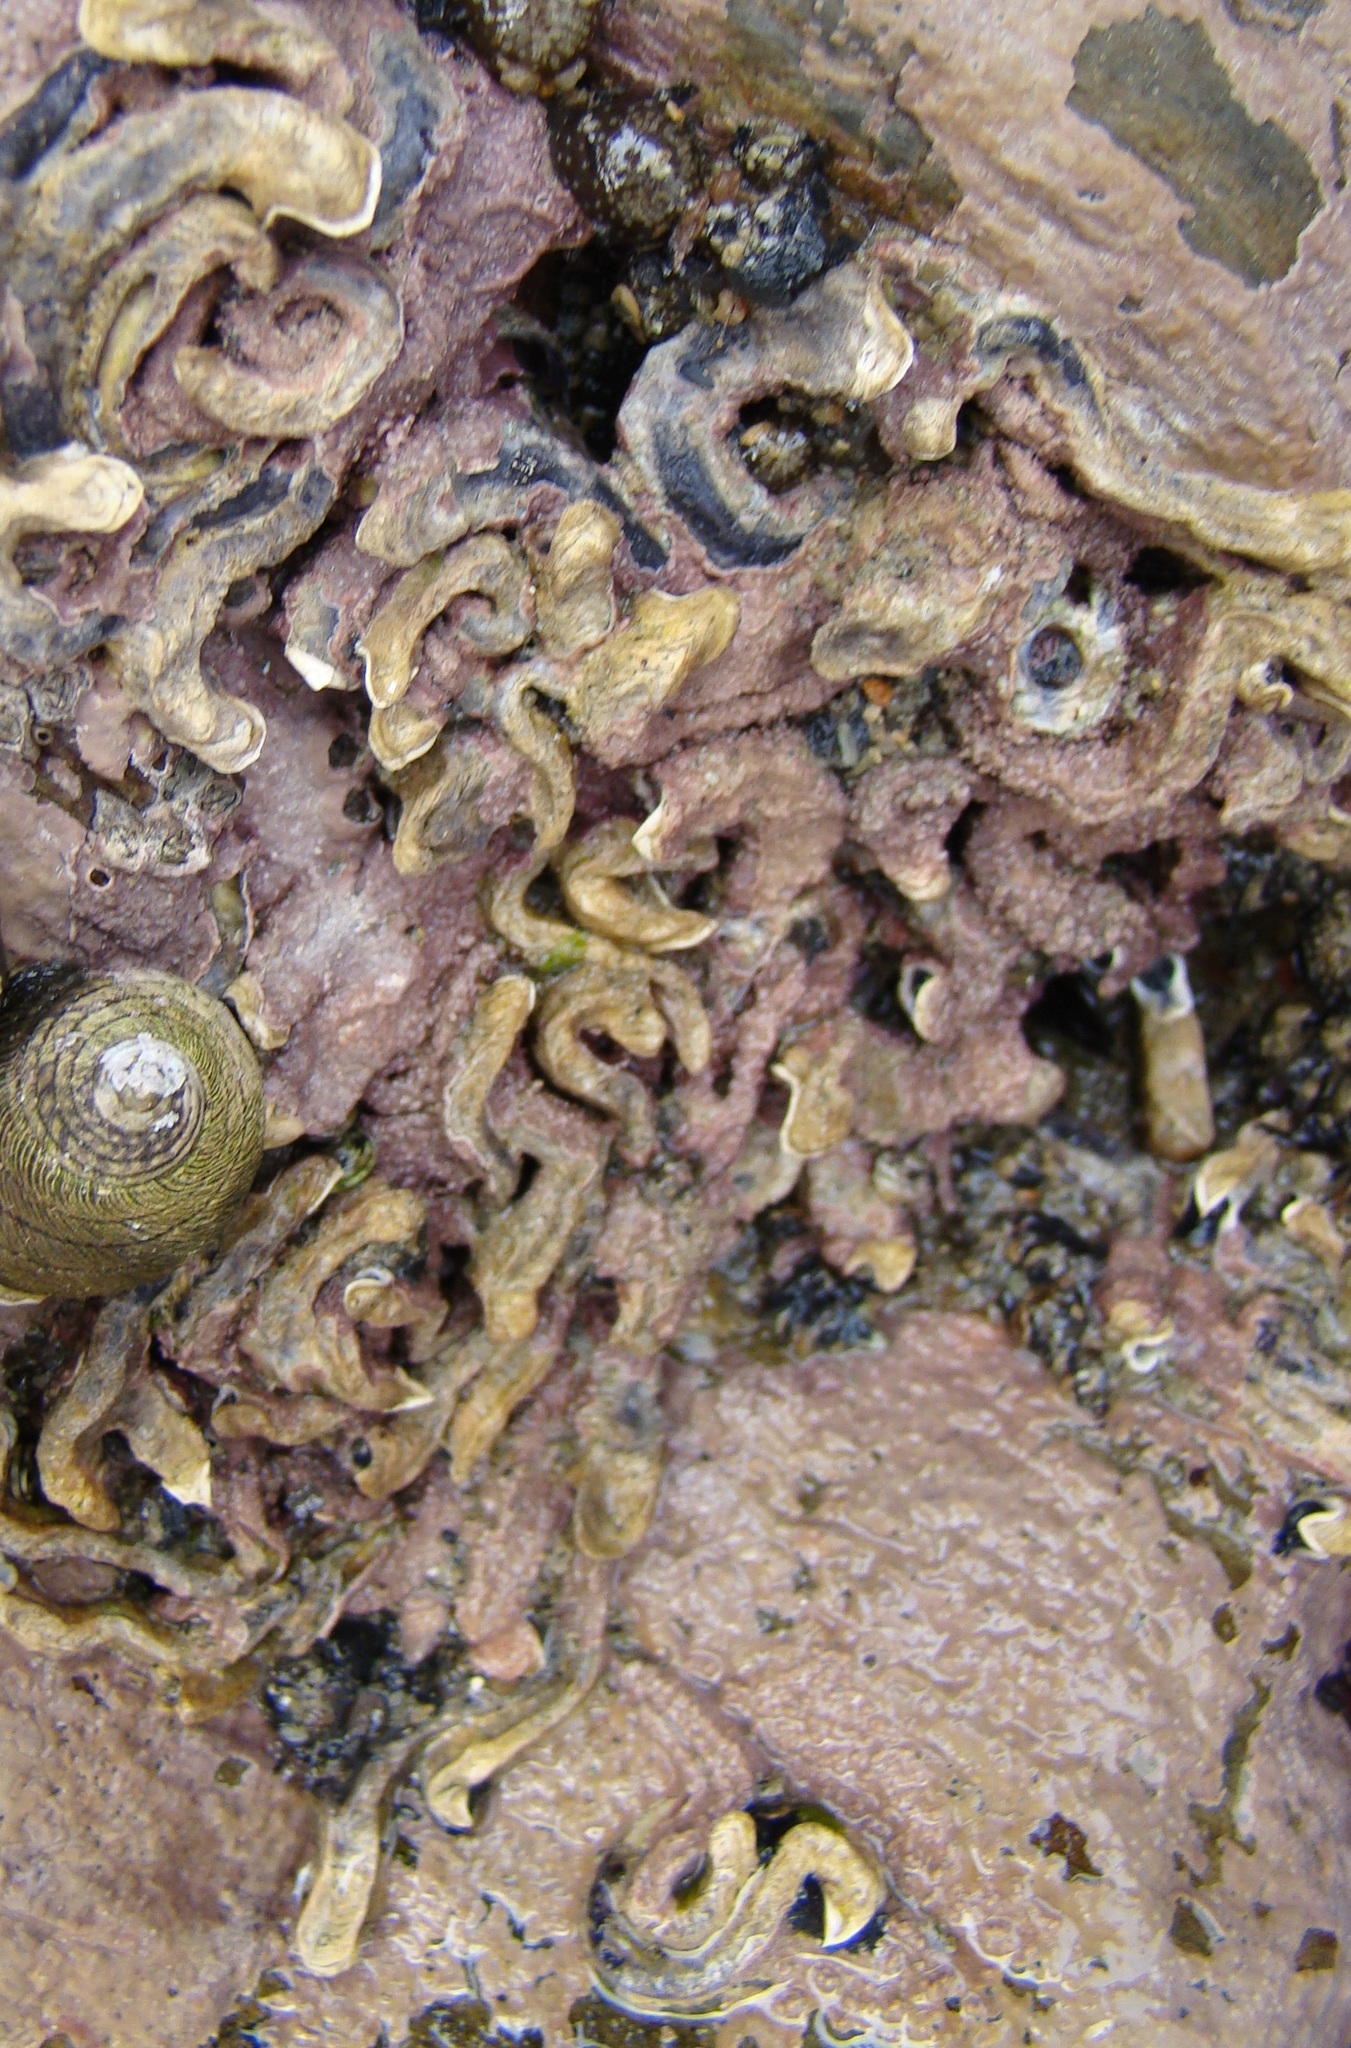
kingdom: Animalia
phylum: Annelida
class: Polychaeta
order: Sabellida
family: Serpulidae
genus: Spirobranchus
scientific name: Spirobranchus cariniferus
